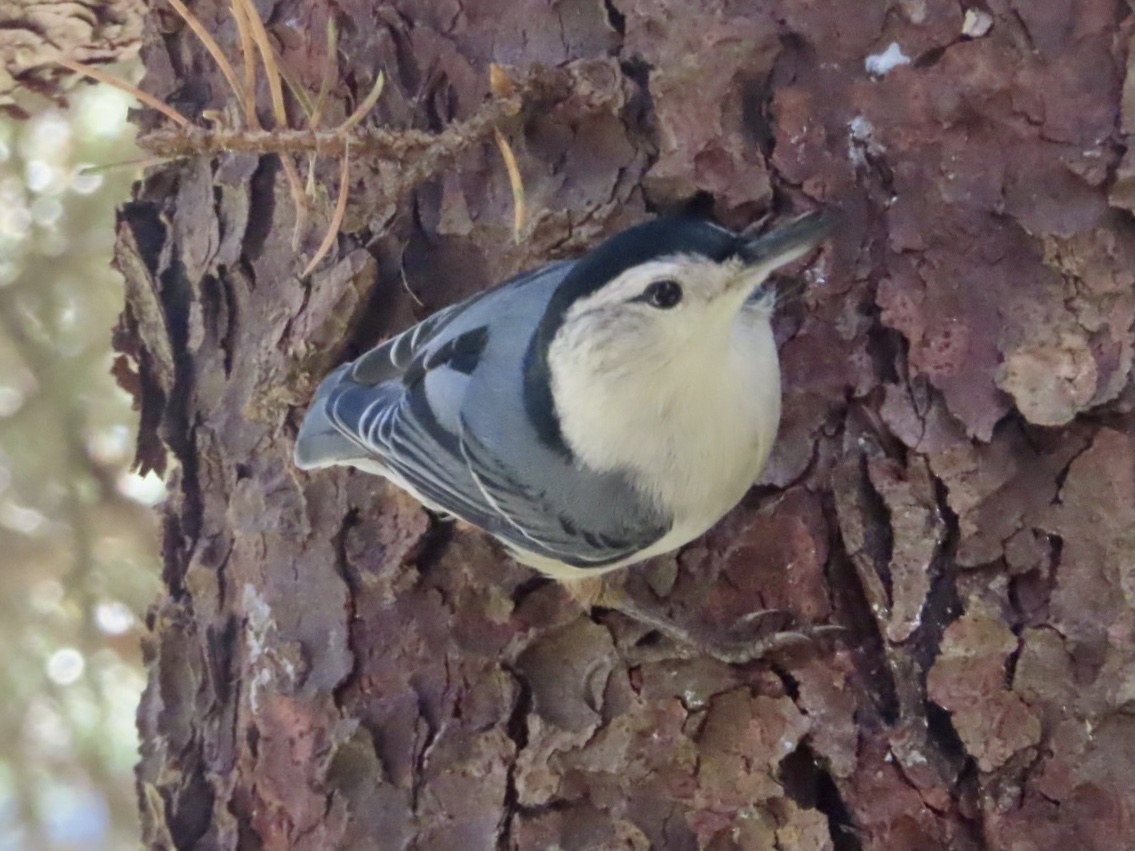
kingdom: Animalia
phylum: Chordata
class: Aves
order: Passeriformes
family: Sittidae
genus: Sitta
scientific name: Sitta carolinensis
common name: White-breasted nuthatch
